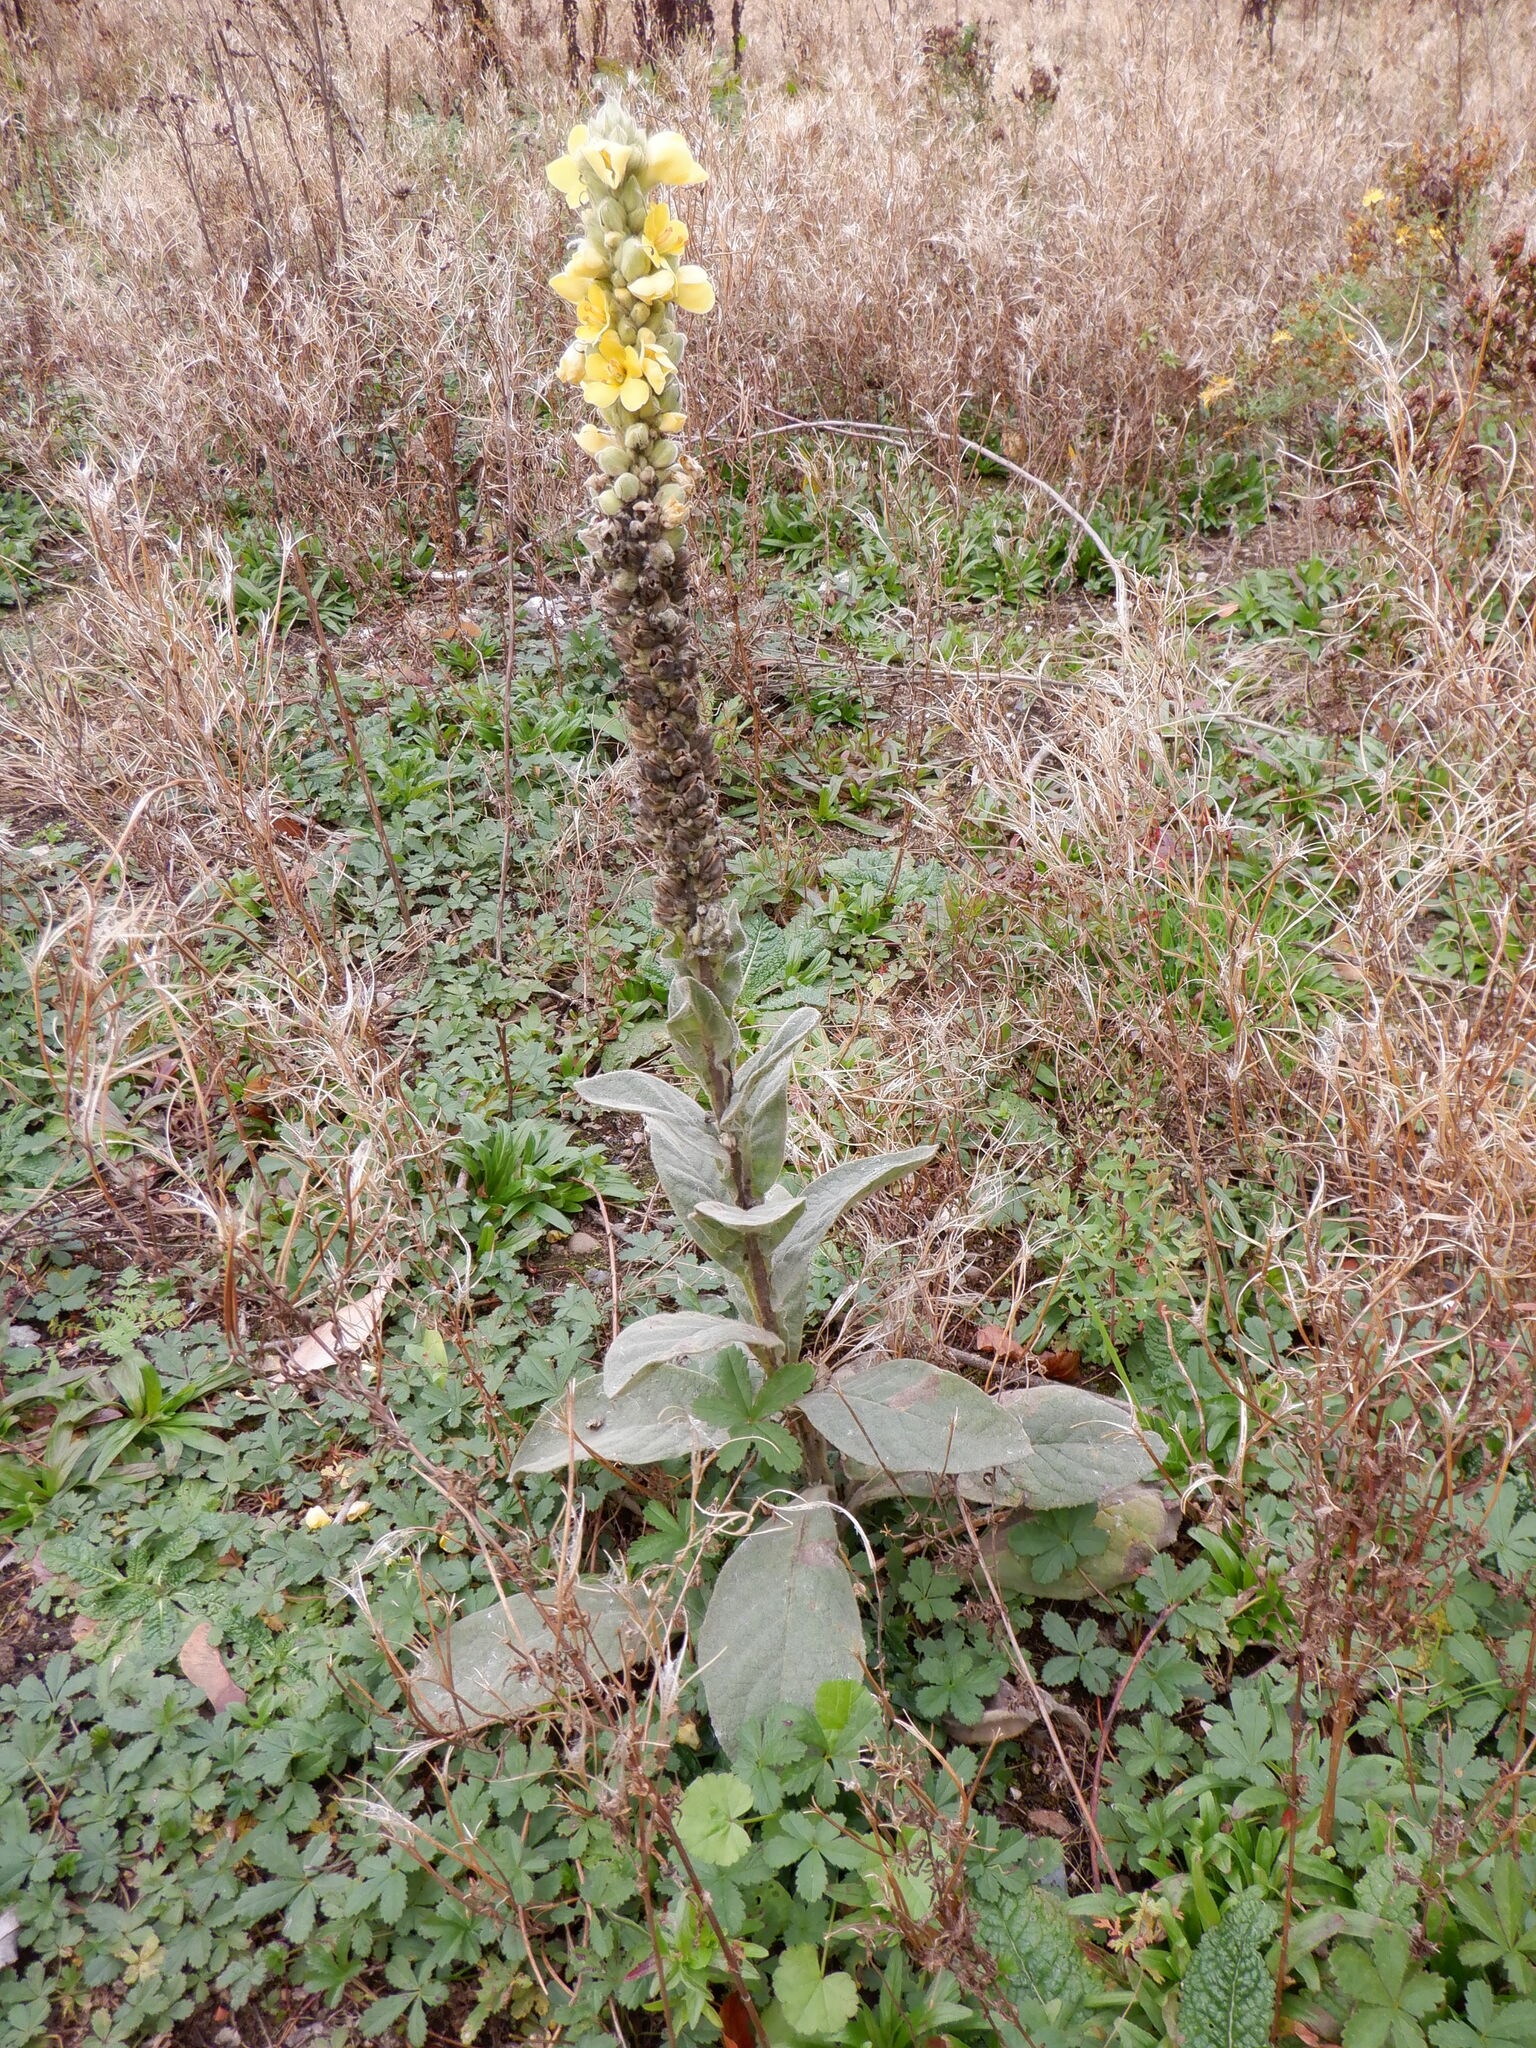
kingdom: Plantae
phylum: Tracheophyta
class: Magnoliopsida
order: Lamiales
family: Scrophulariaceae
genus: Verbascum
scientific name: Verbascum thapsus
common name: Common mullein
